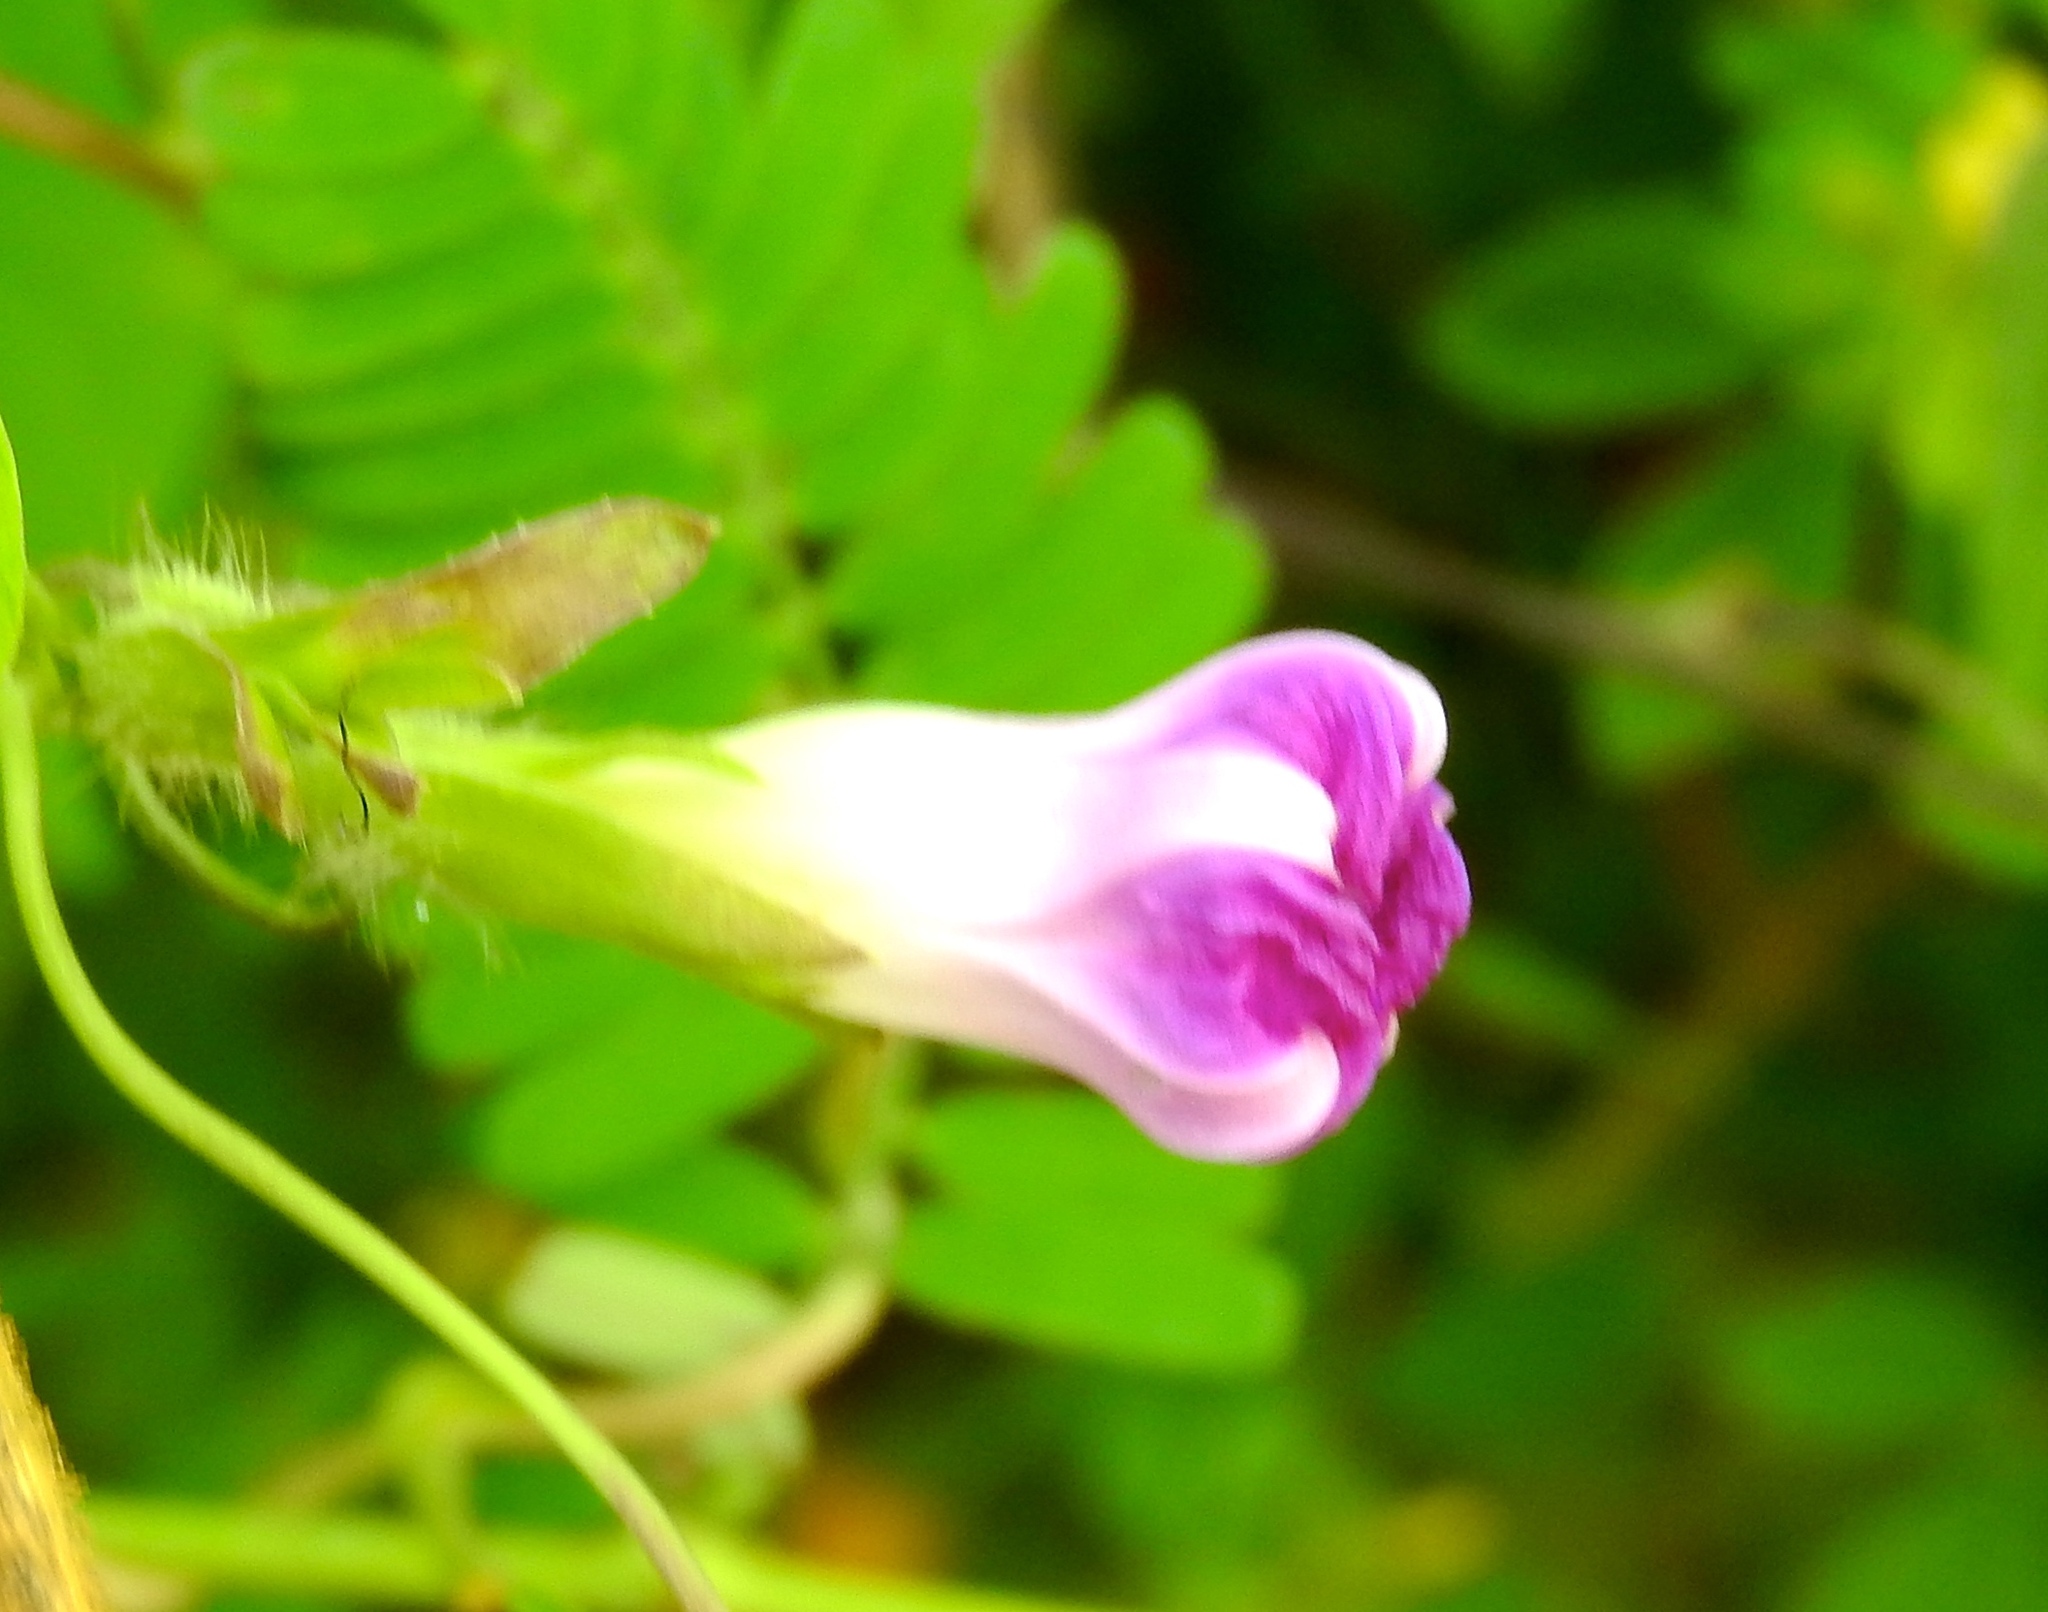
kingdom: Plantae
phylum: Tracheophyta
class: Magnoliopsida
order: Solanales
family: Convolvulaceae
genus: Ipomoea
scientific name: Ipomoea meyeri
